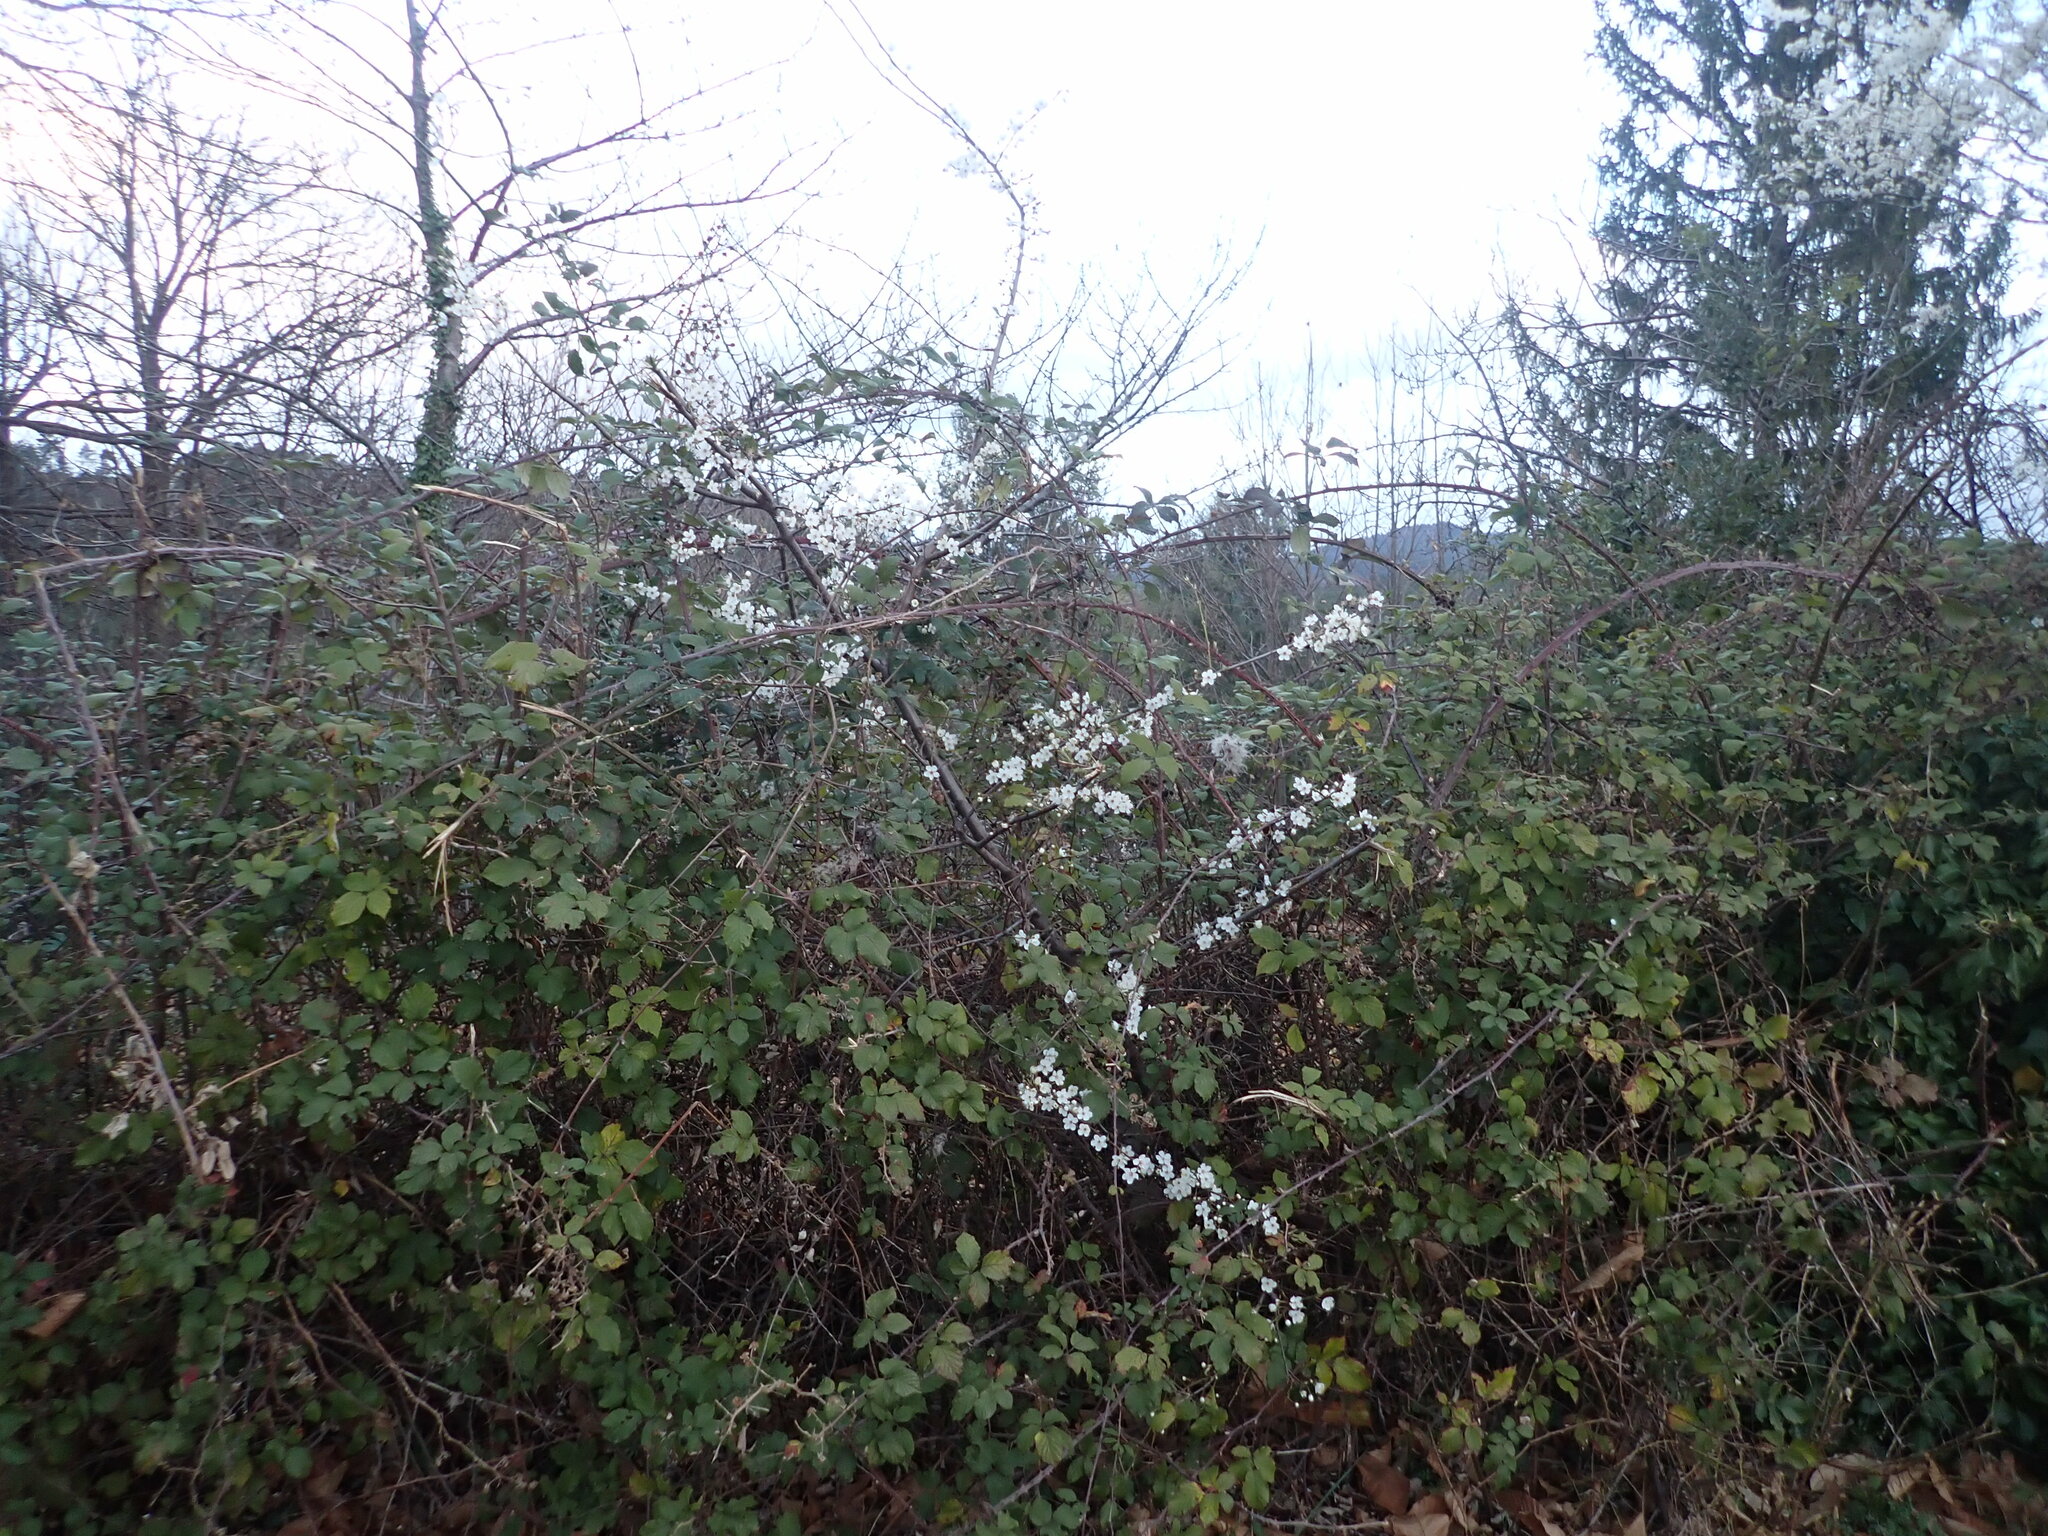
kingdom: Animalia
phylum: Arthropoda
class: Insecta
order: Lepidoptera
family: Lycaenidae
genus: Thecla
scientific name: Thecla betulae
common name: Brown hairstreak
